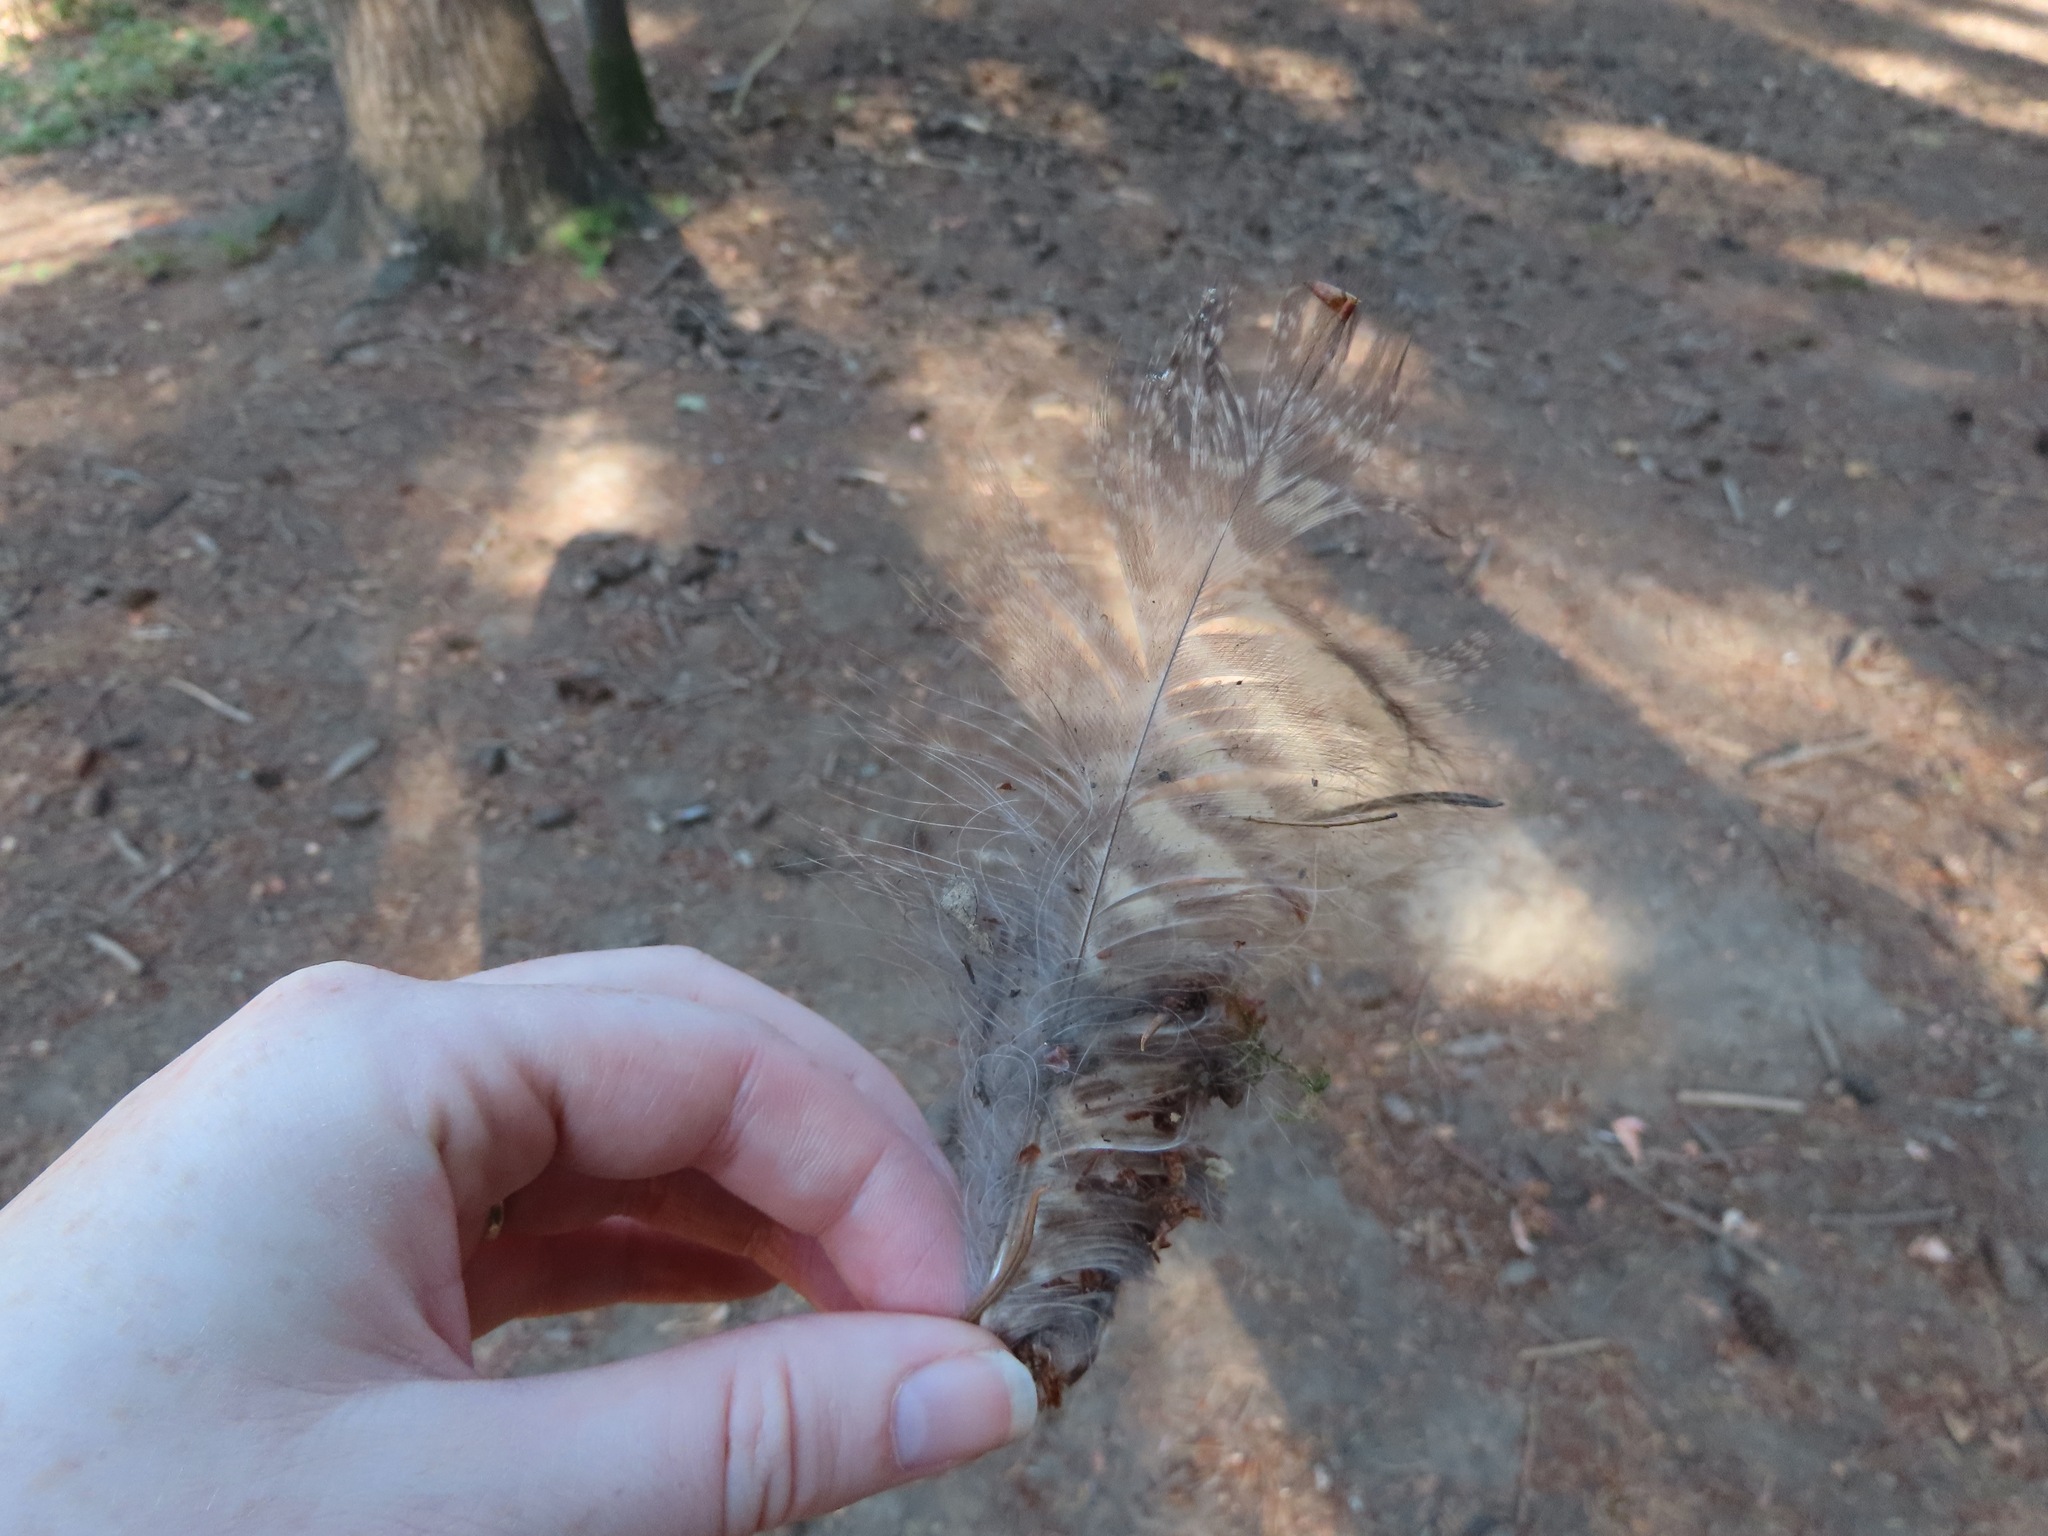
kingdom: Animalia
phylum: Chordata
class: Aves
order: Strigiformes
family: Strigidae
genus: Bubo
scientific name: Bubo virginianus
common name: Great horned owl
